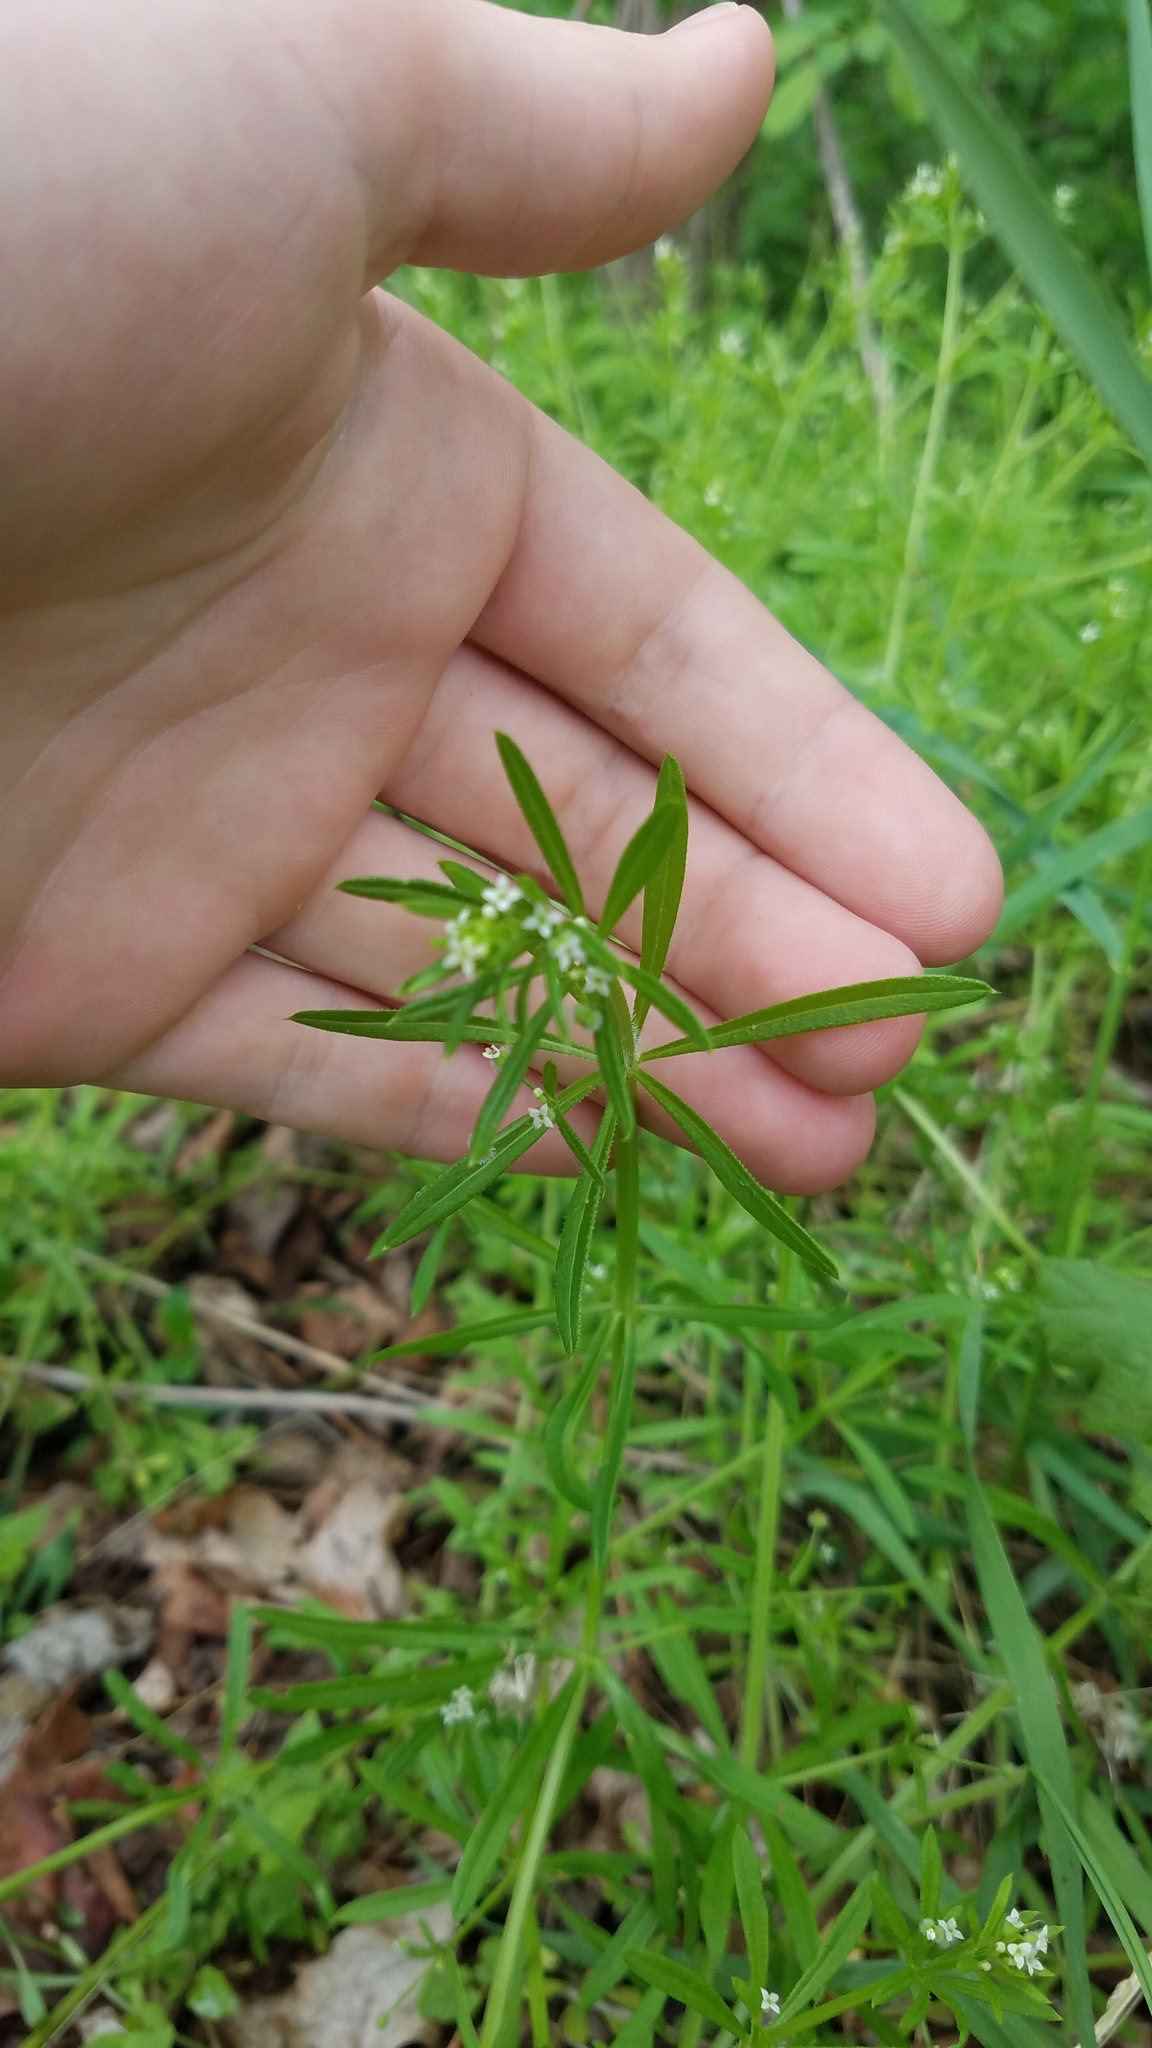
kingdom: Plantae
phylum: Tracheophyta
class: Magnoliopsida
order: Gentianales
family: Rubiaceae
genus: Galium
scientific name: Galium aparine
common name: Cleavers
